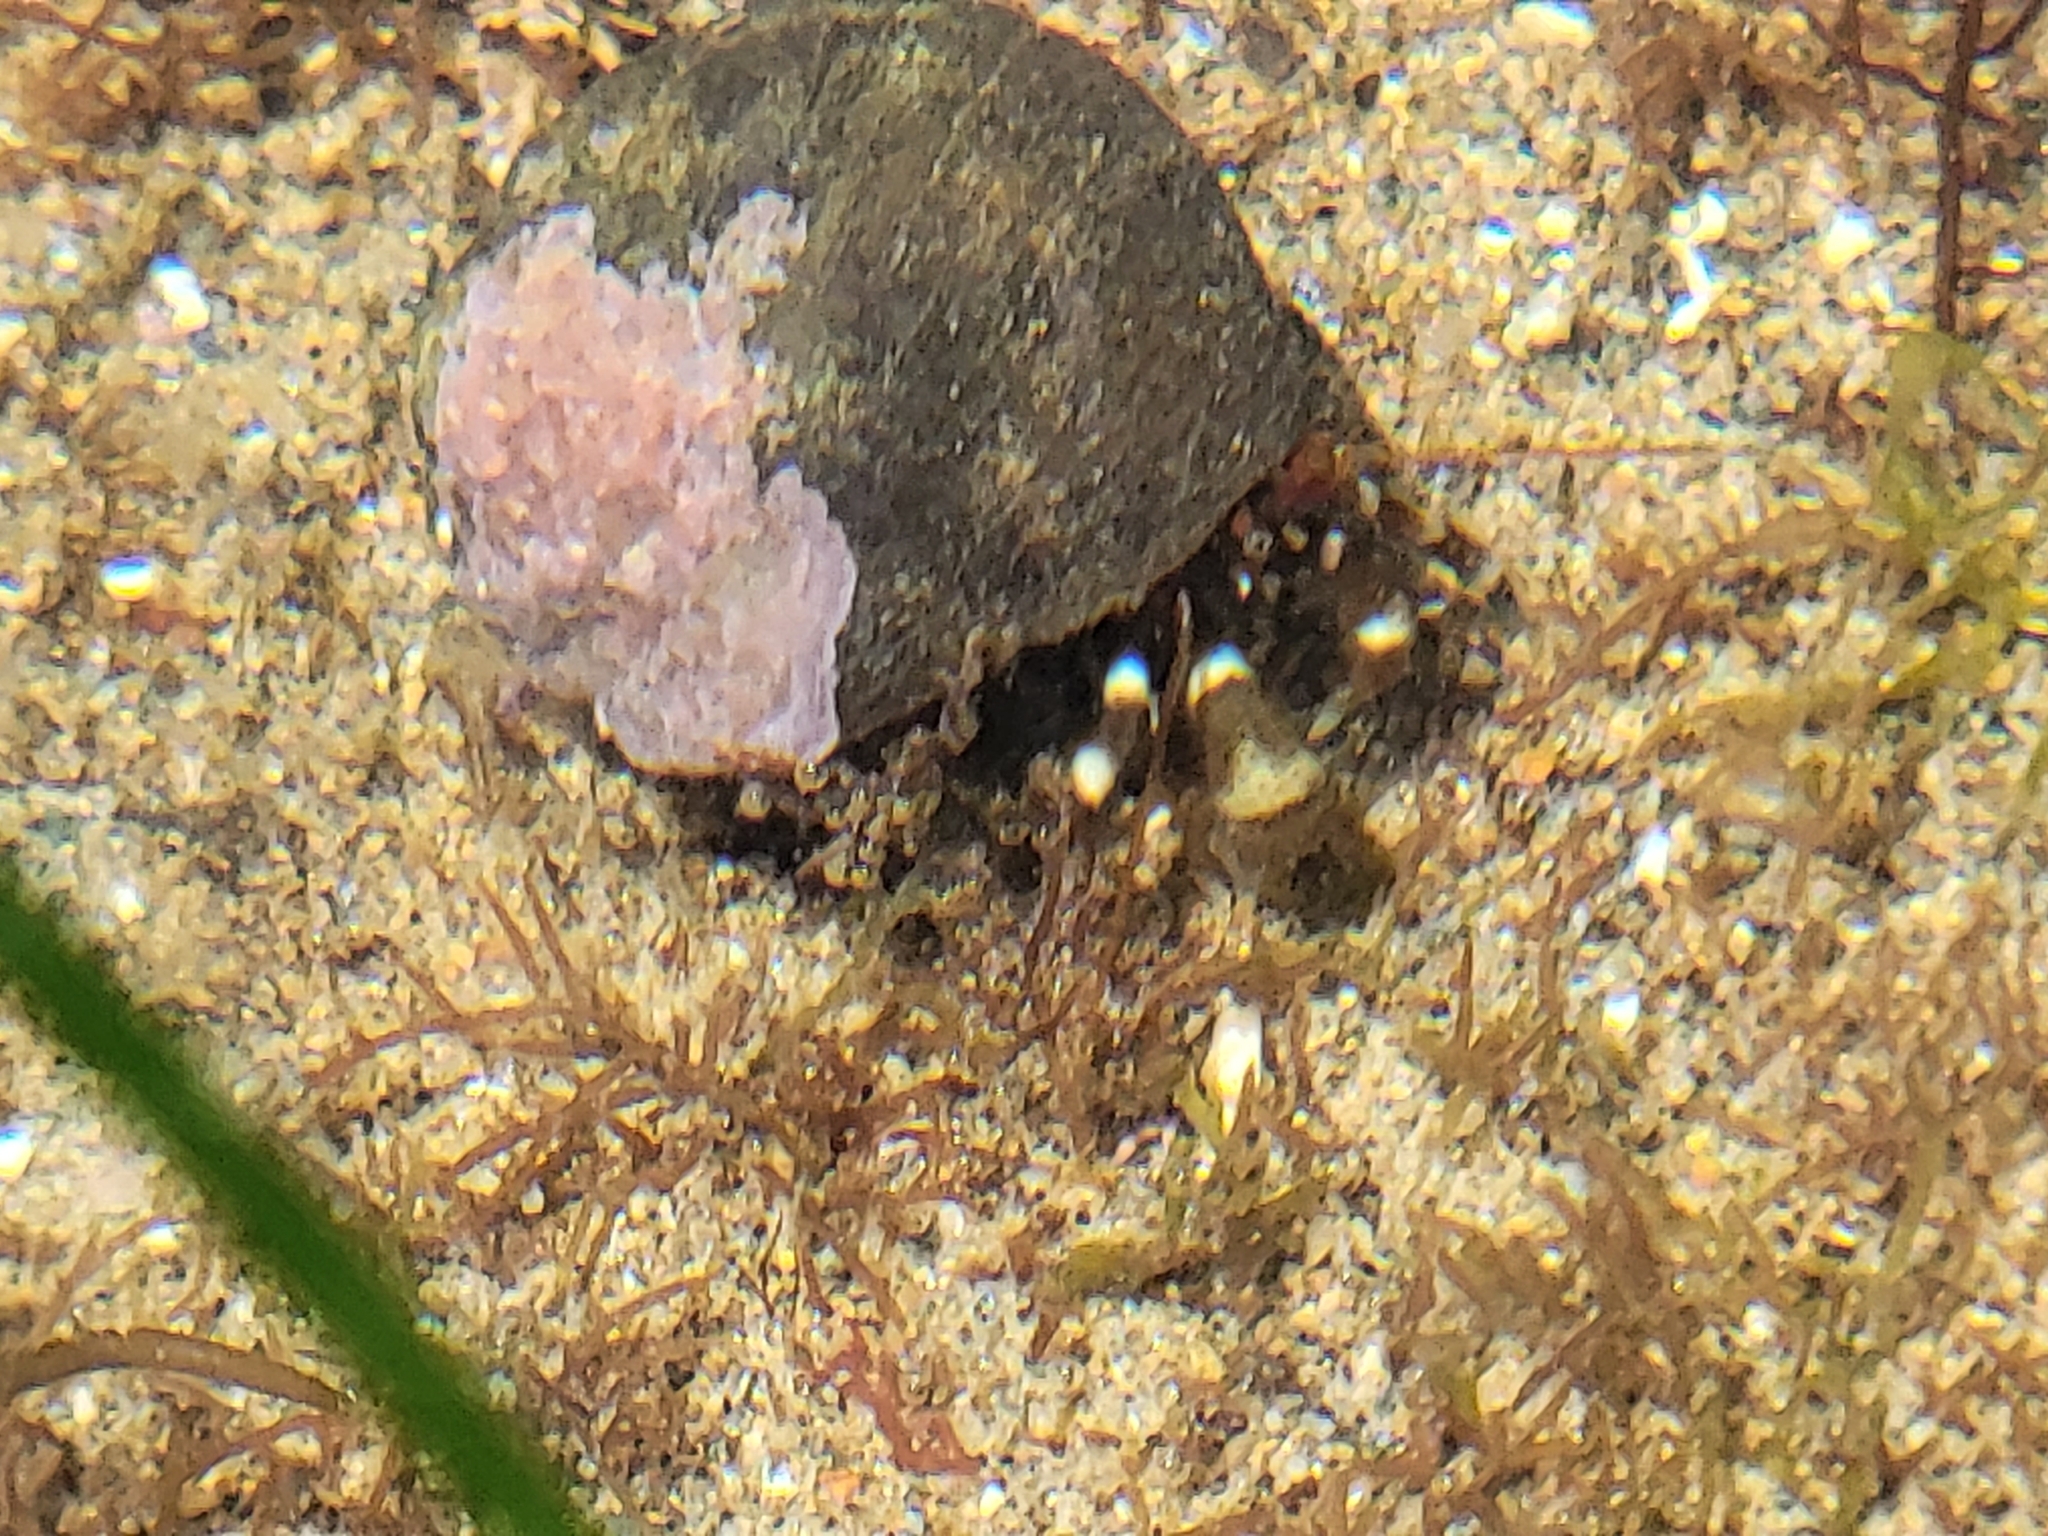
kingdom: Animalia
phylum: Arthropoda
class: Malacostraca
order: Decapoda
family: Paguridae
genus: Pagurus
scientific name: Pagurus samuelis
